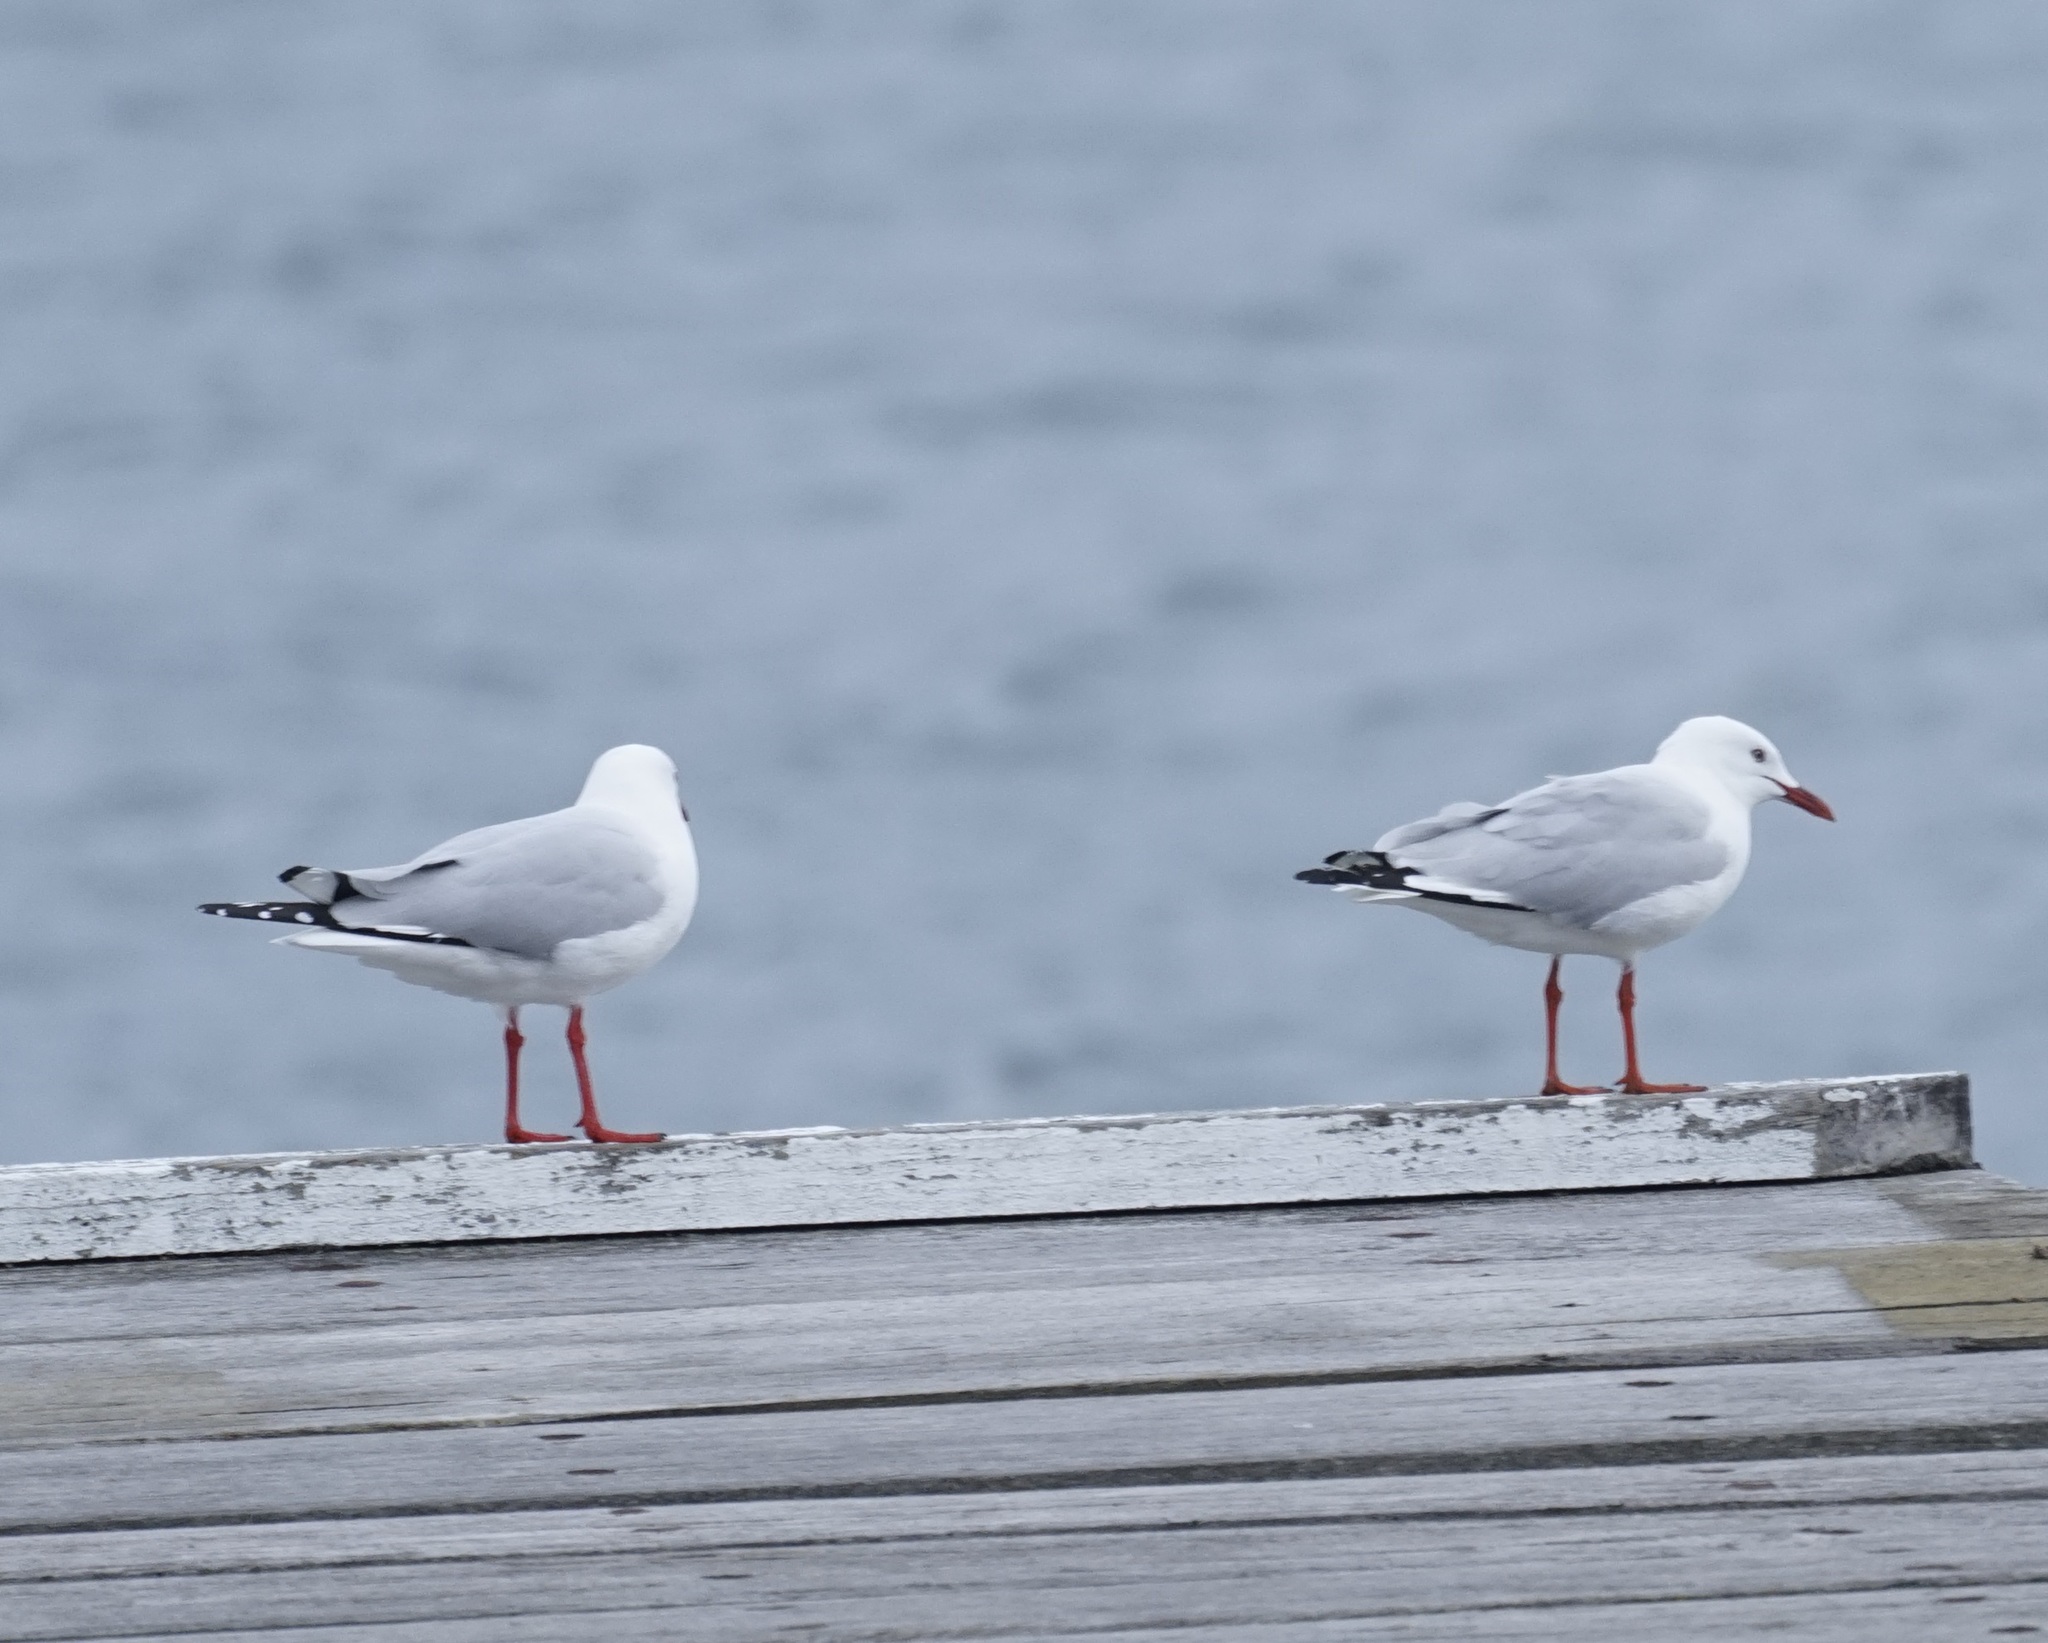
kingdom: Animalia
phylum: Chordata
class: Aves
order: Charadriiformes
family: Laridae
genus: Chroicocephalus
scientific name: Chroicocephalus novaehollandiae
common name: Silver gull
